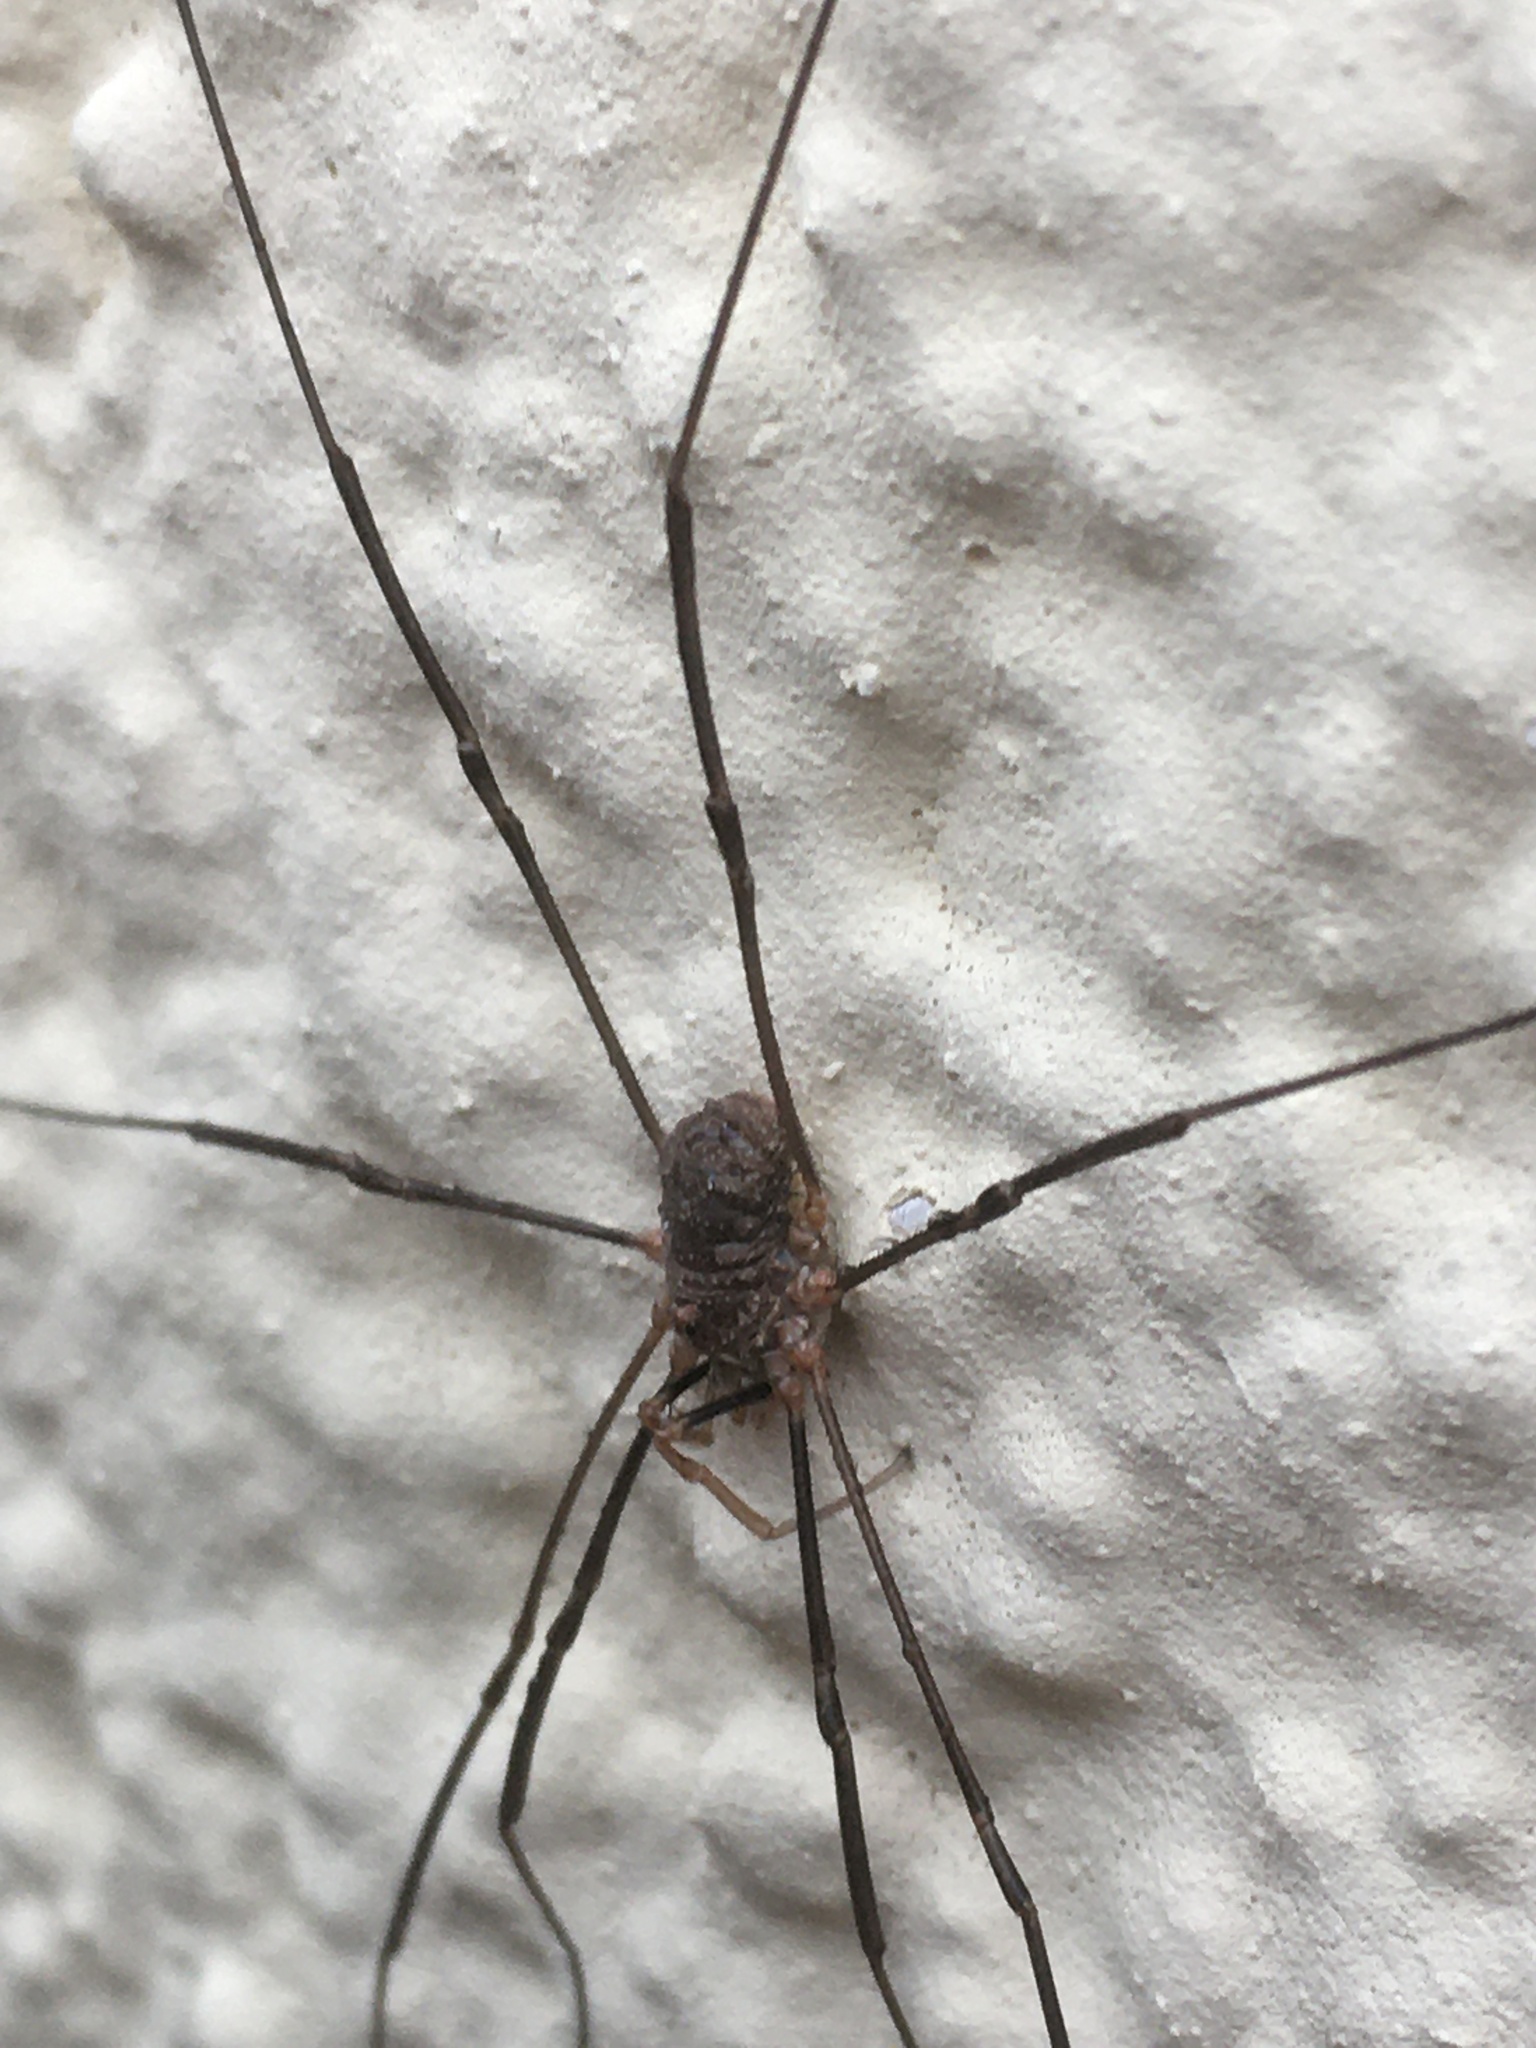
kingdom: Animalia
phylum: Arthropoda
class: Arachnida
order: Opiliones
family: Phalangiidae
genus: Phalangium
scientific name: Phalangium opilio
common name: Daddy longleg
